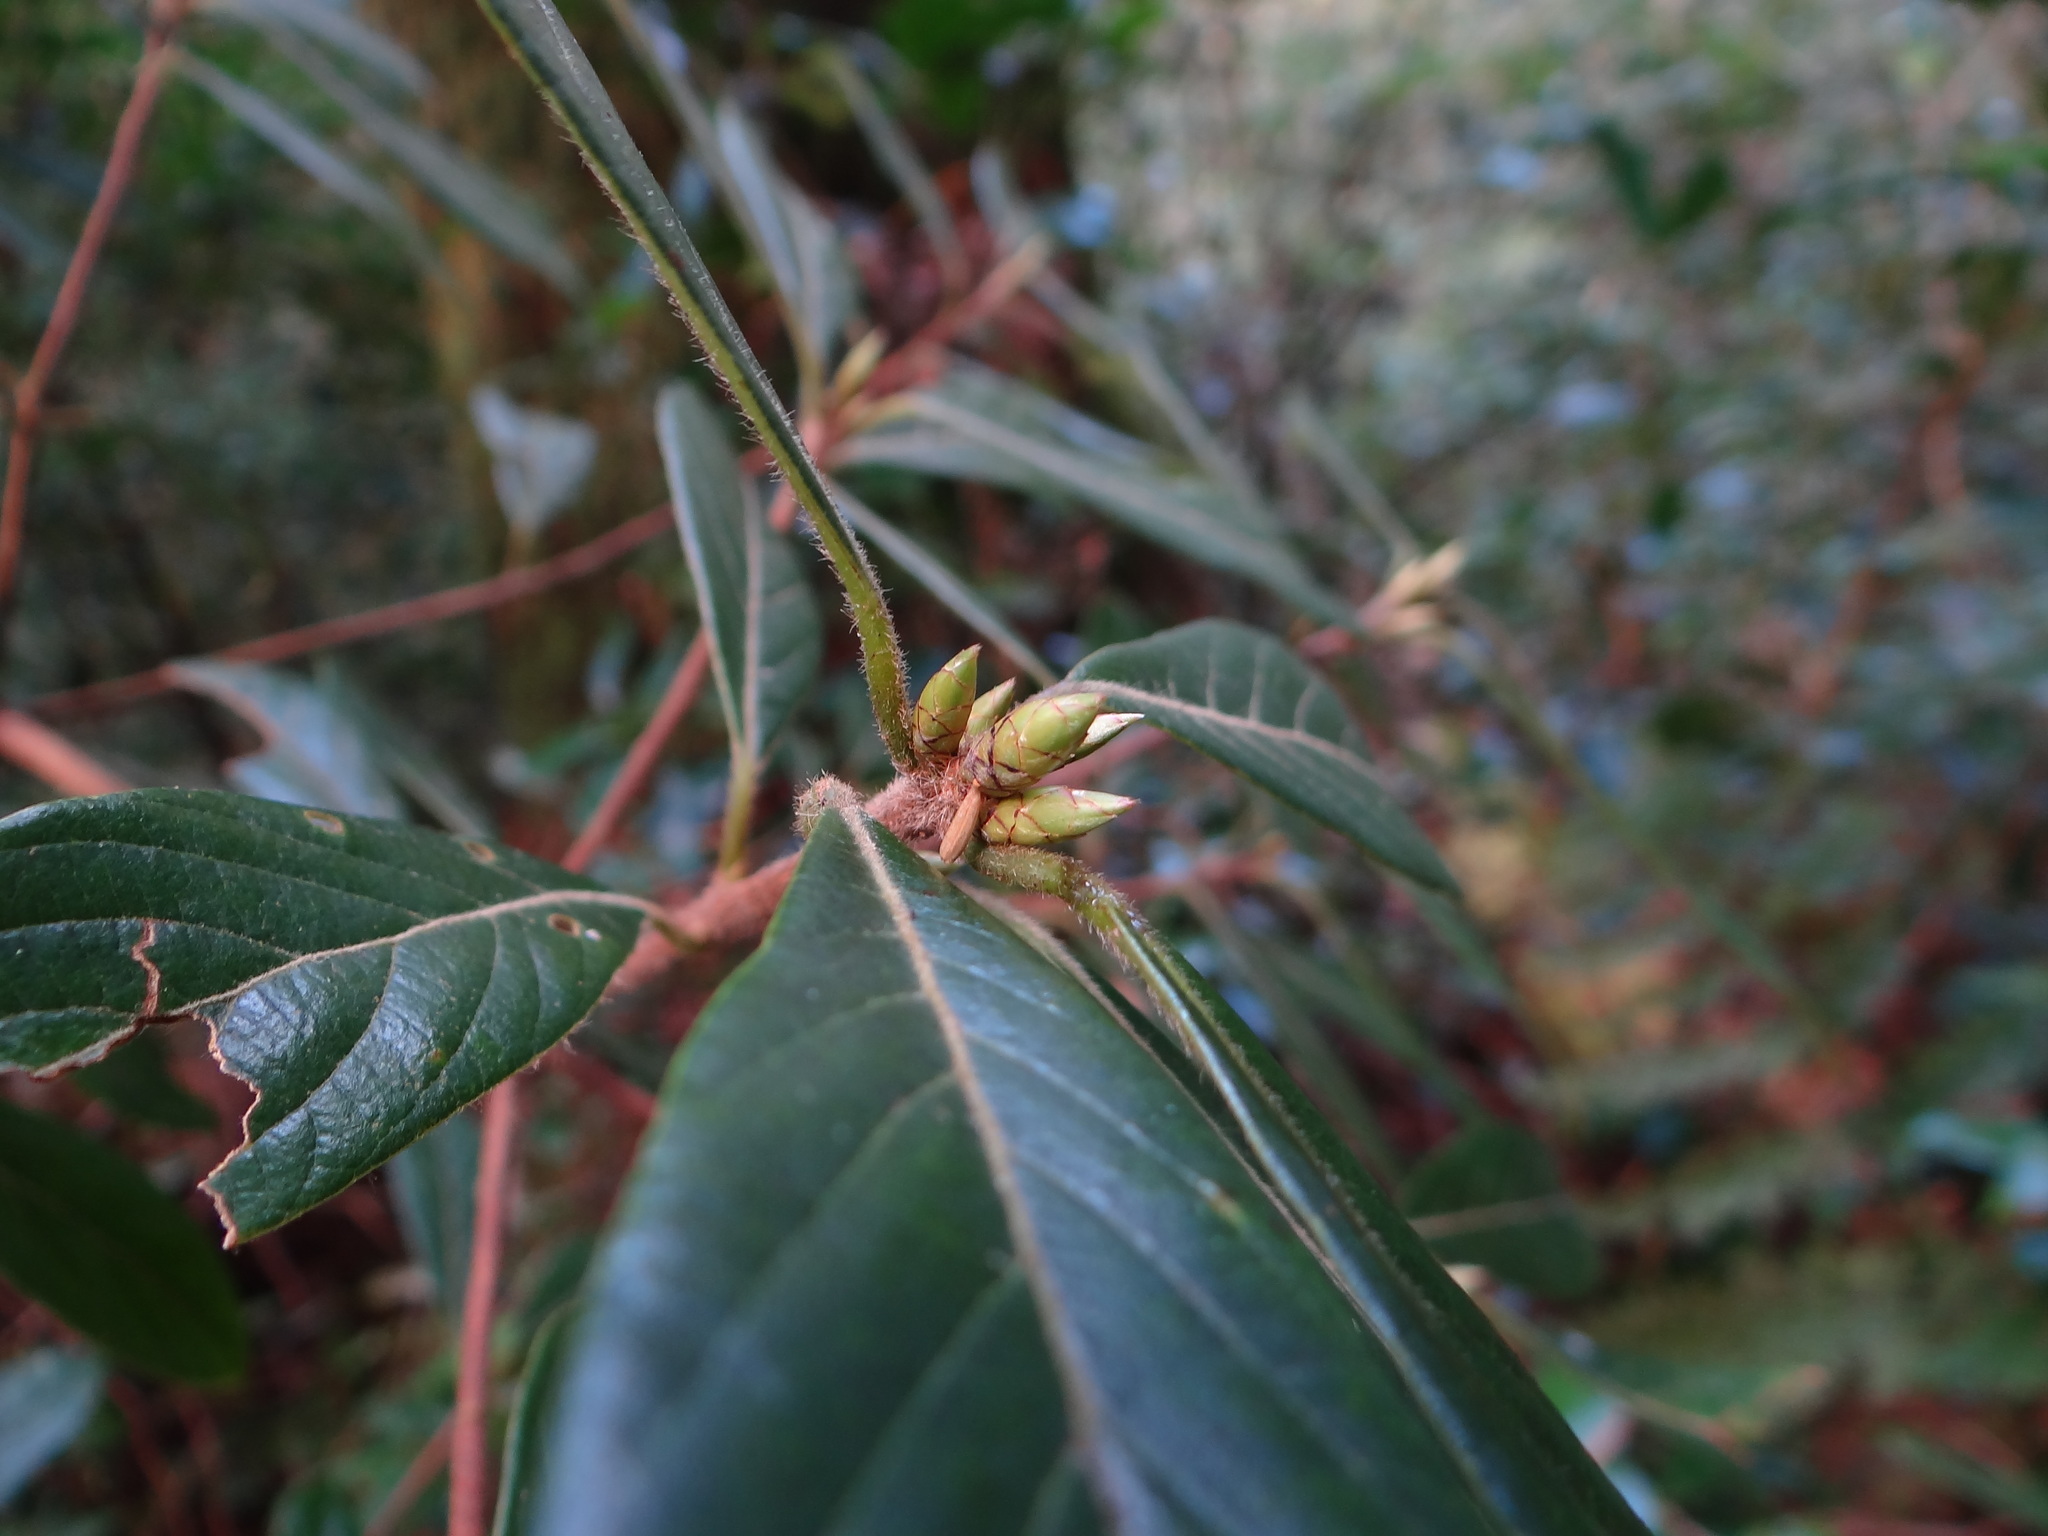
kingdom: Plantae
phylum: Tracheophyta
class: Magnoliopsida
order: Laurales
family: Lauraceae
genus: Actinodaphne
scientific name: Actinodaphne mushaensis
